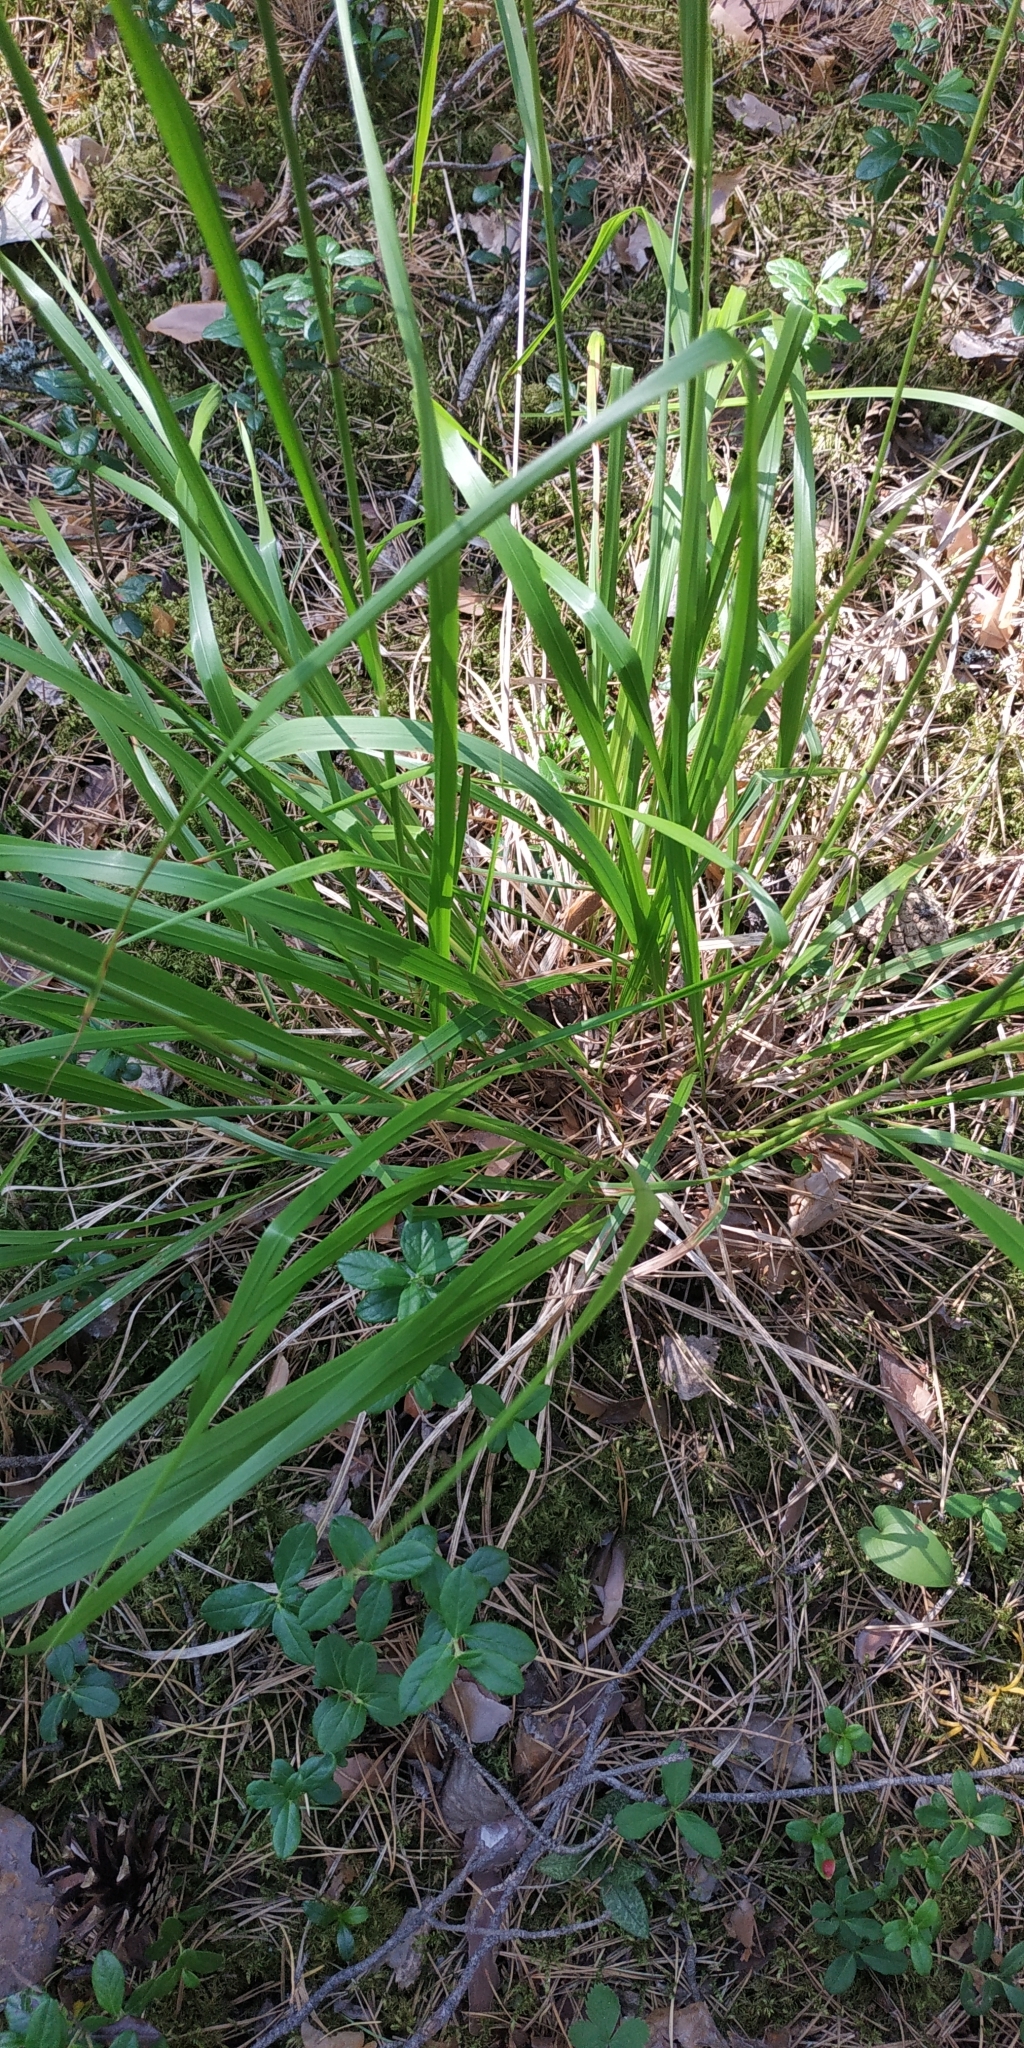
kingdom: Plantae
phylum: Tracheophyta
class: Liliopsida
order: Poales
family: Poaceae
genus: Calamagrostis
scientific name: Calamagrostis arundinacea
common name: Metskastik
